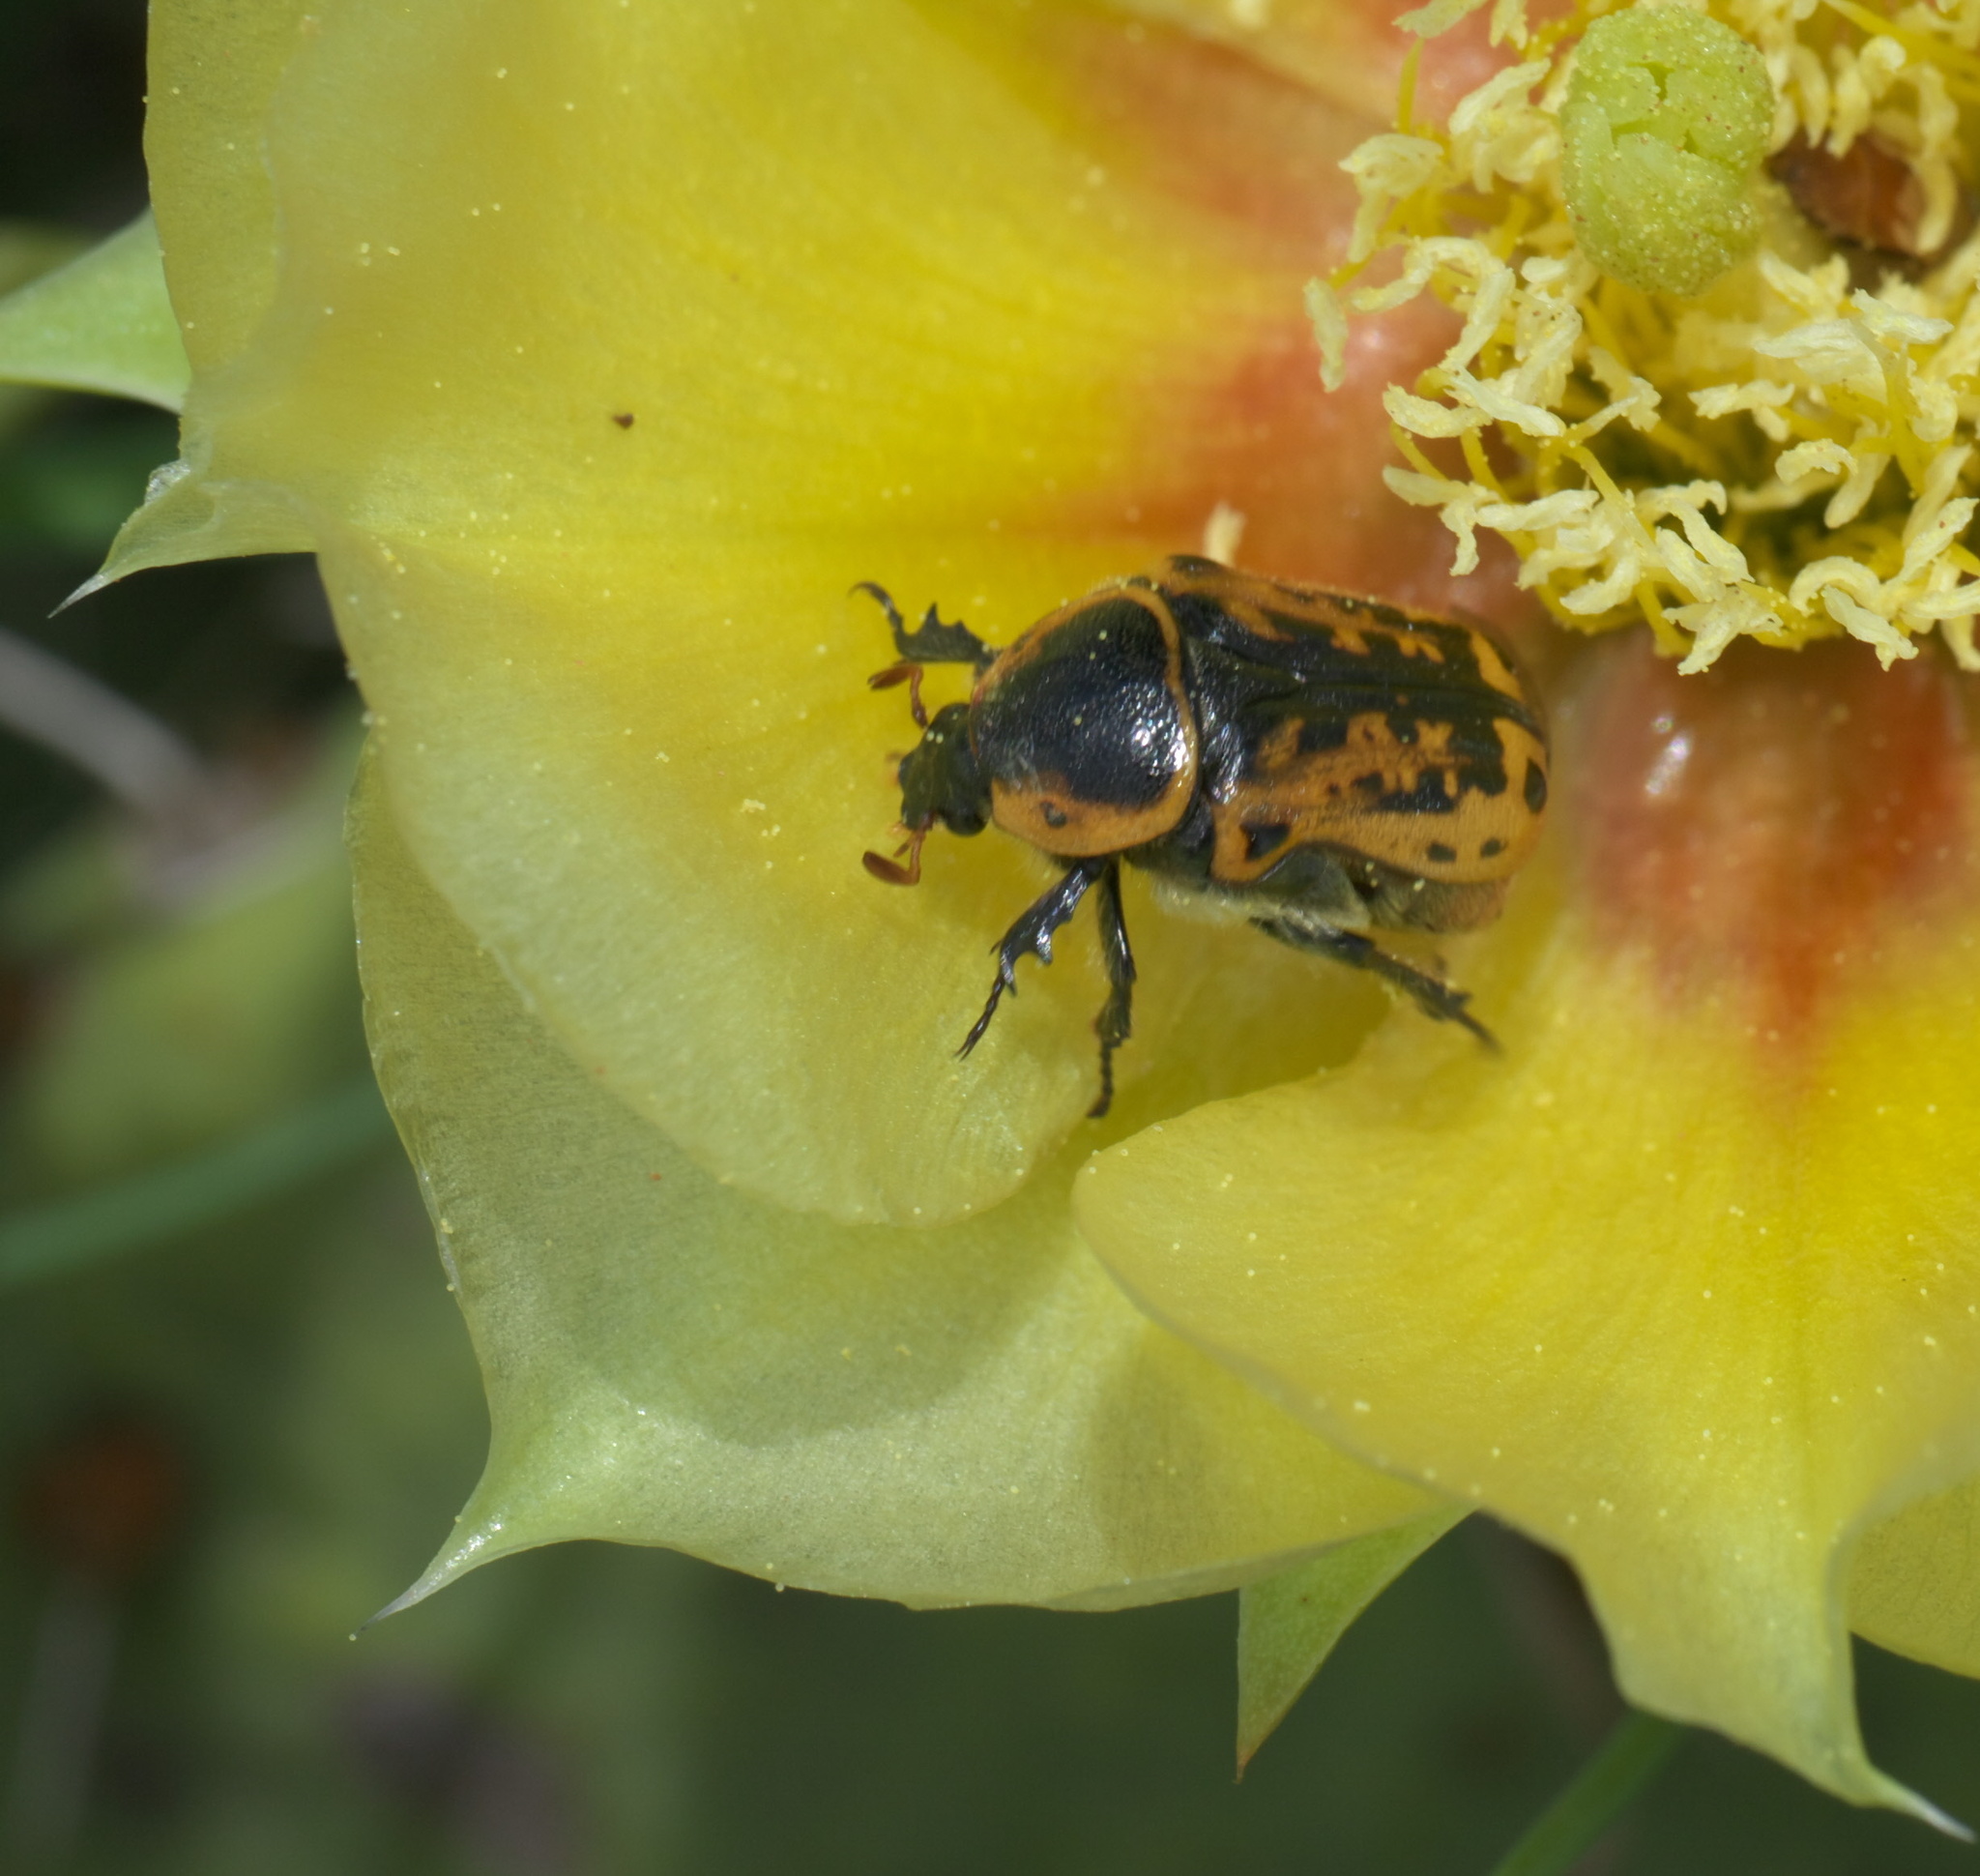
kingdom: Animalia
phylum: Arthropoda
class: Insecta
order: Coleoptera
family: Scarabaeidae
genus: Euphoria
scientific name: Euphoria kernii
